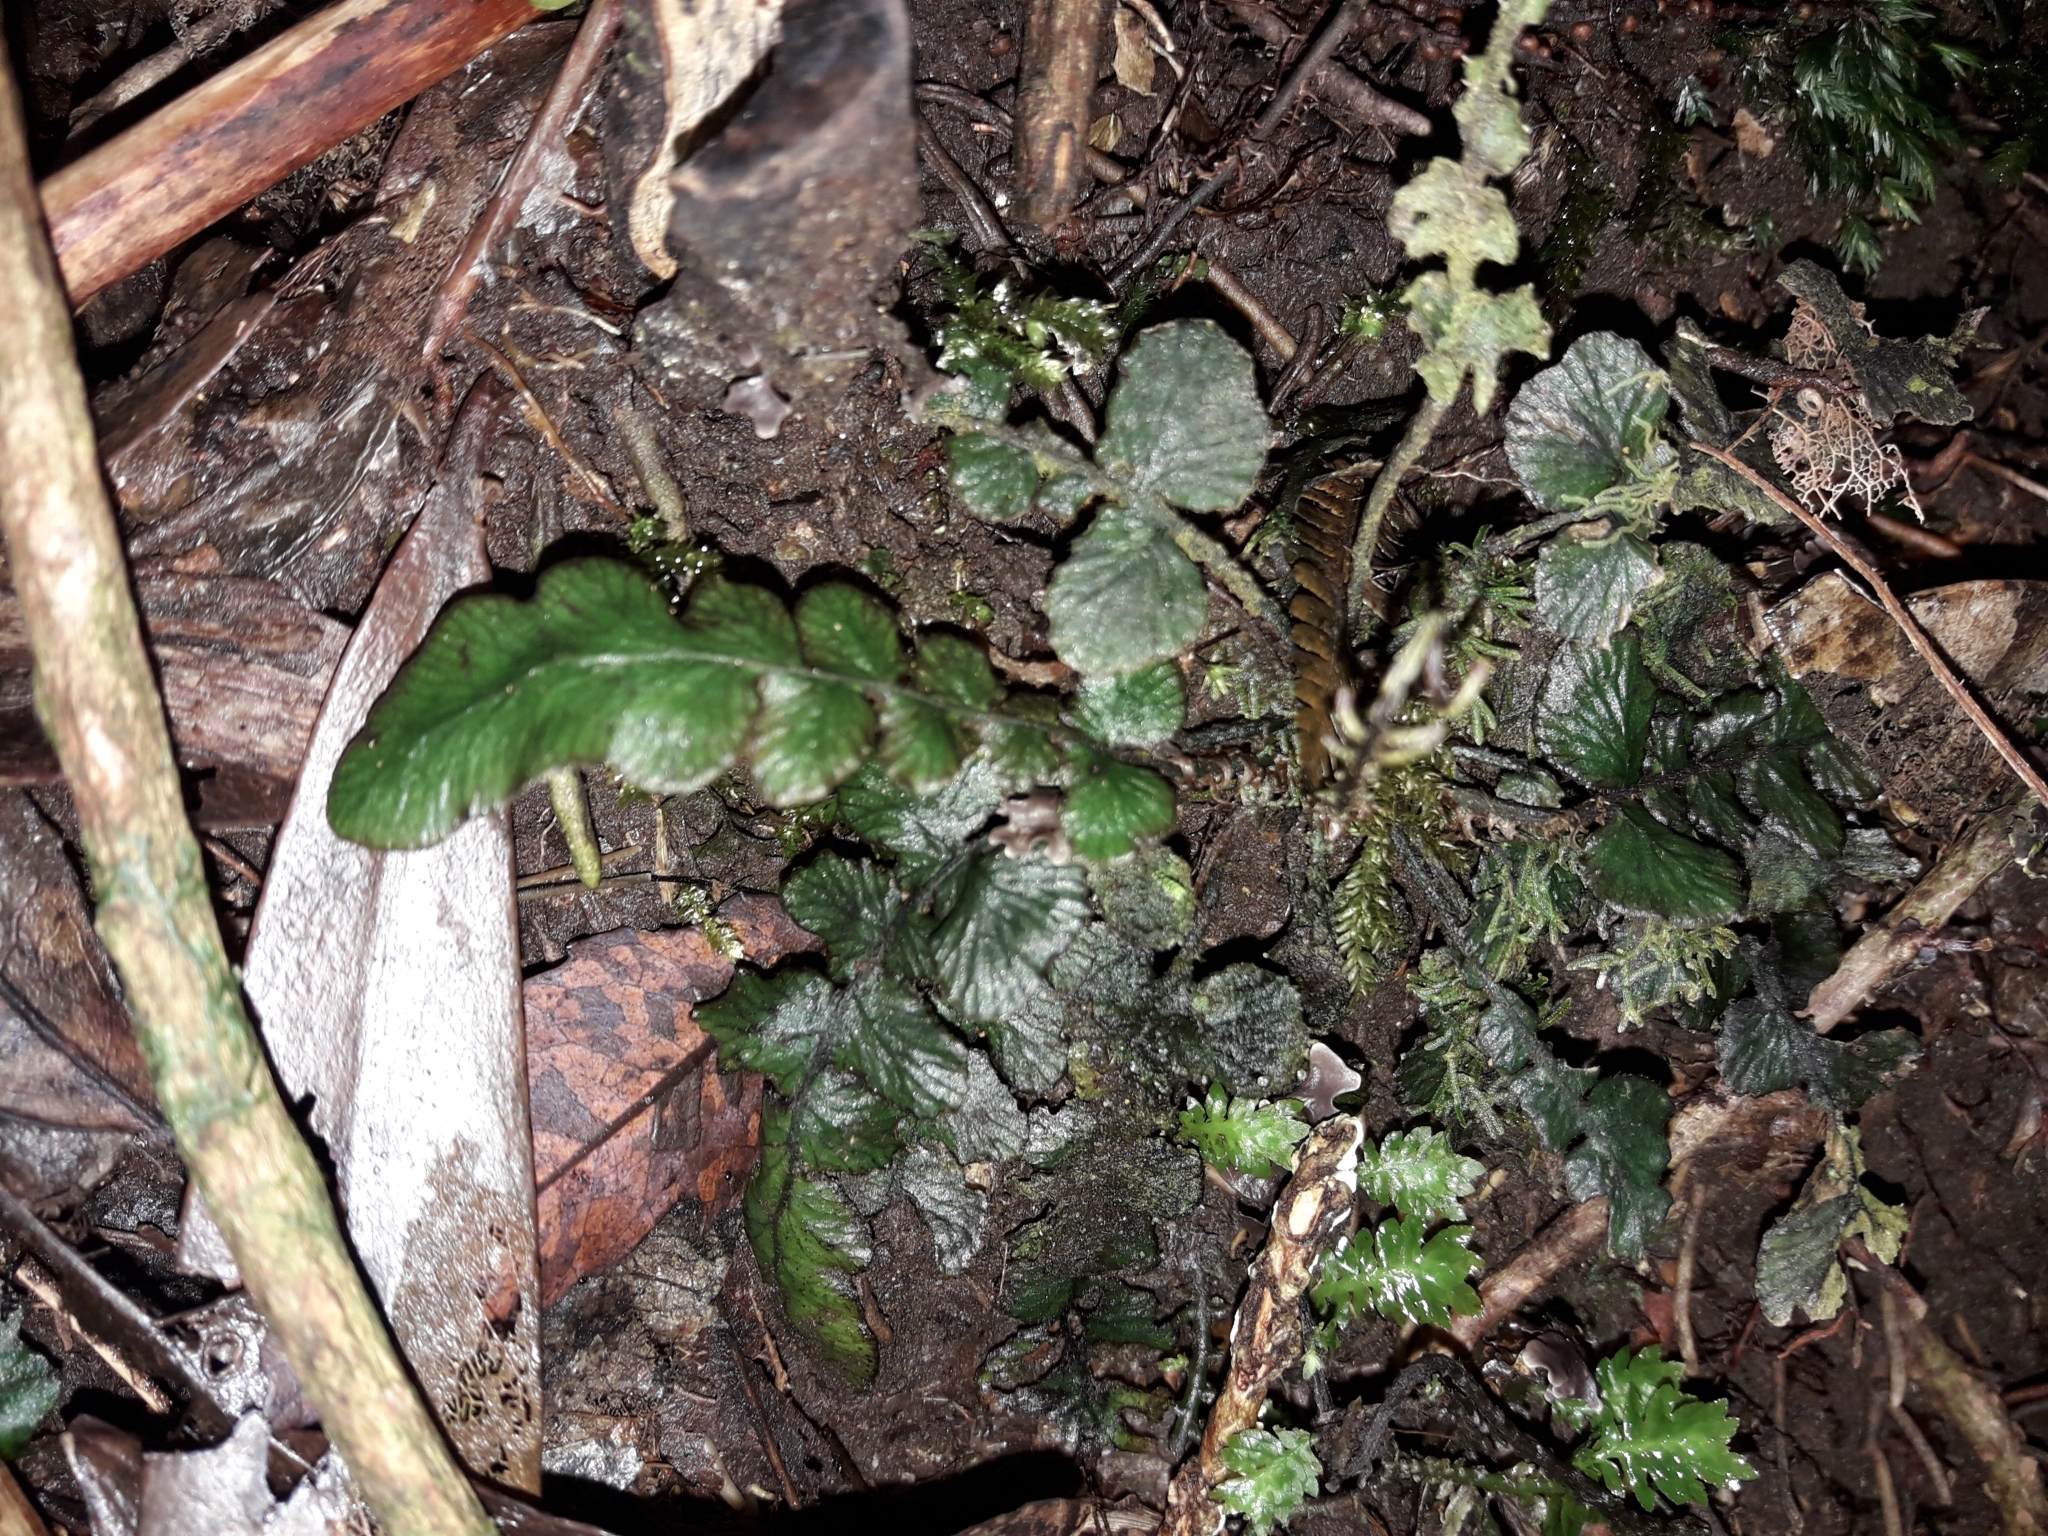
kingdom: Plantae
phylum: Tracheophyta
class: Polypodiopsida
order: Polypodiales
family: Blechnaceae
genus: Cranfillia
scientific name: Cranfillia nigra
